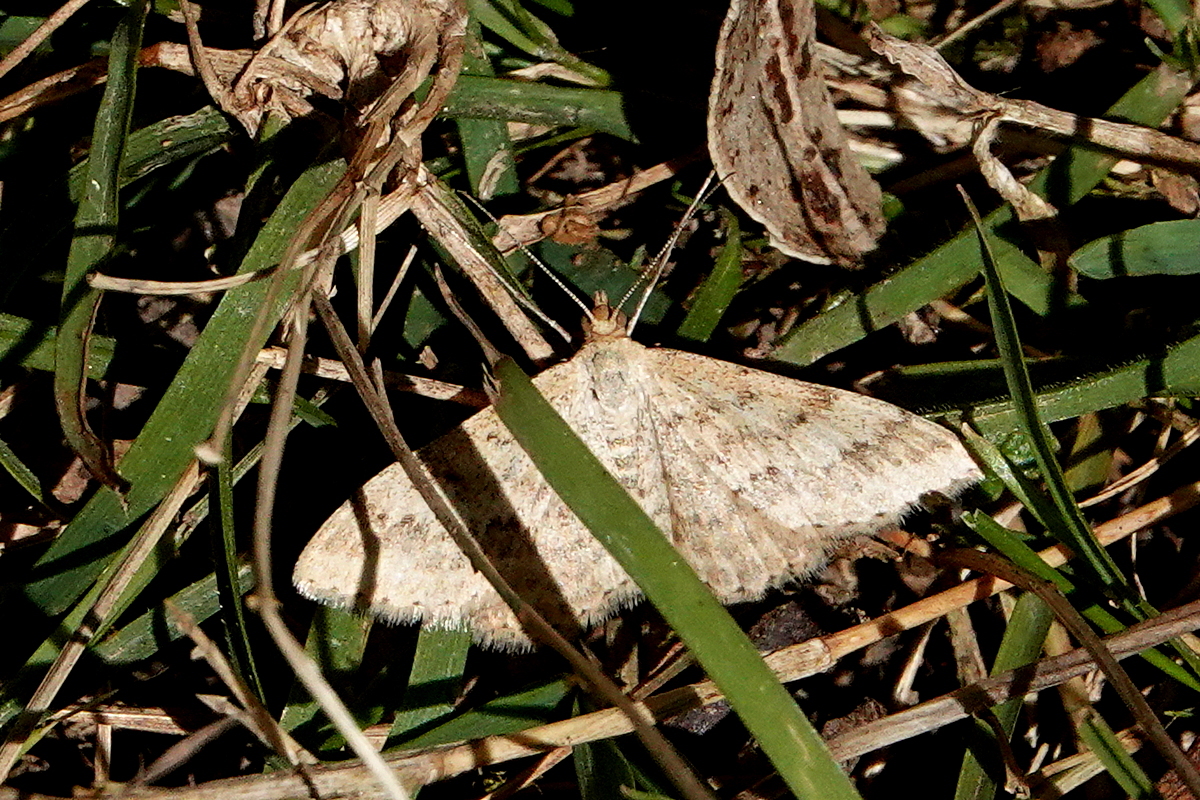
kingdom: Animalia
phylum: Arthropoda
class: Insecta
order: Lepidoptera
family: Geometridae
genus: Scopula
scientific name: Scopula rubraria
